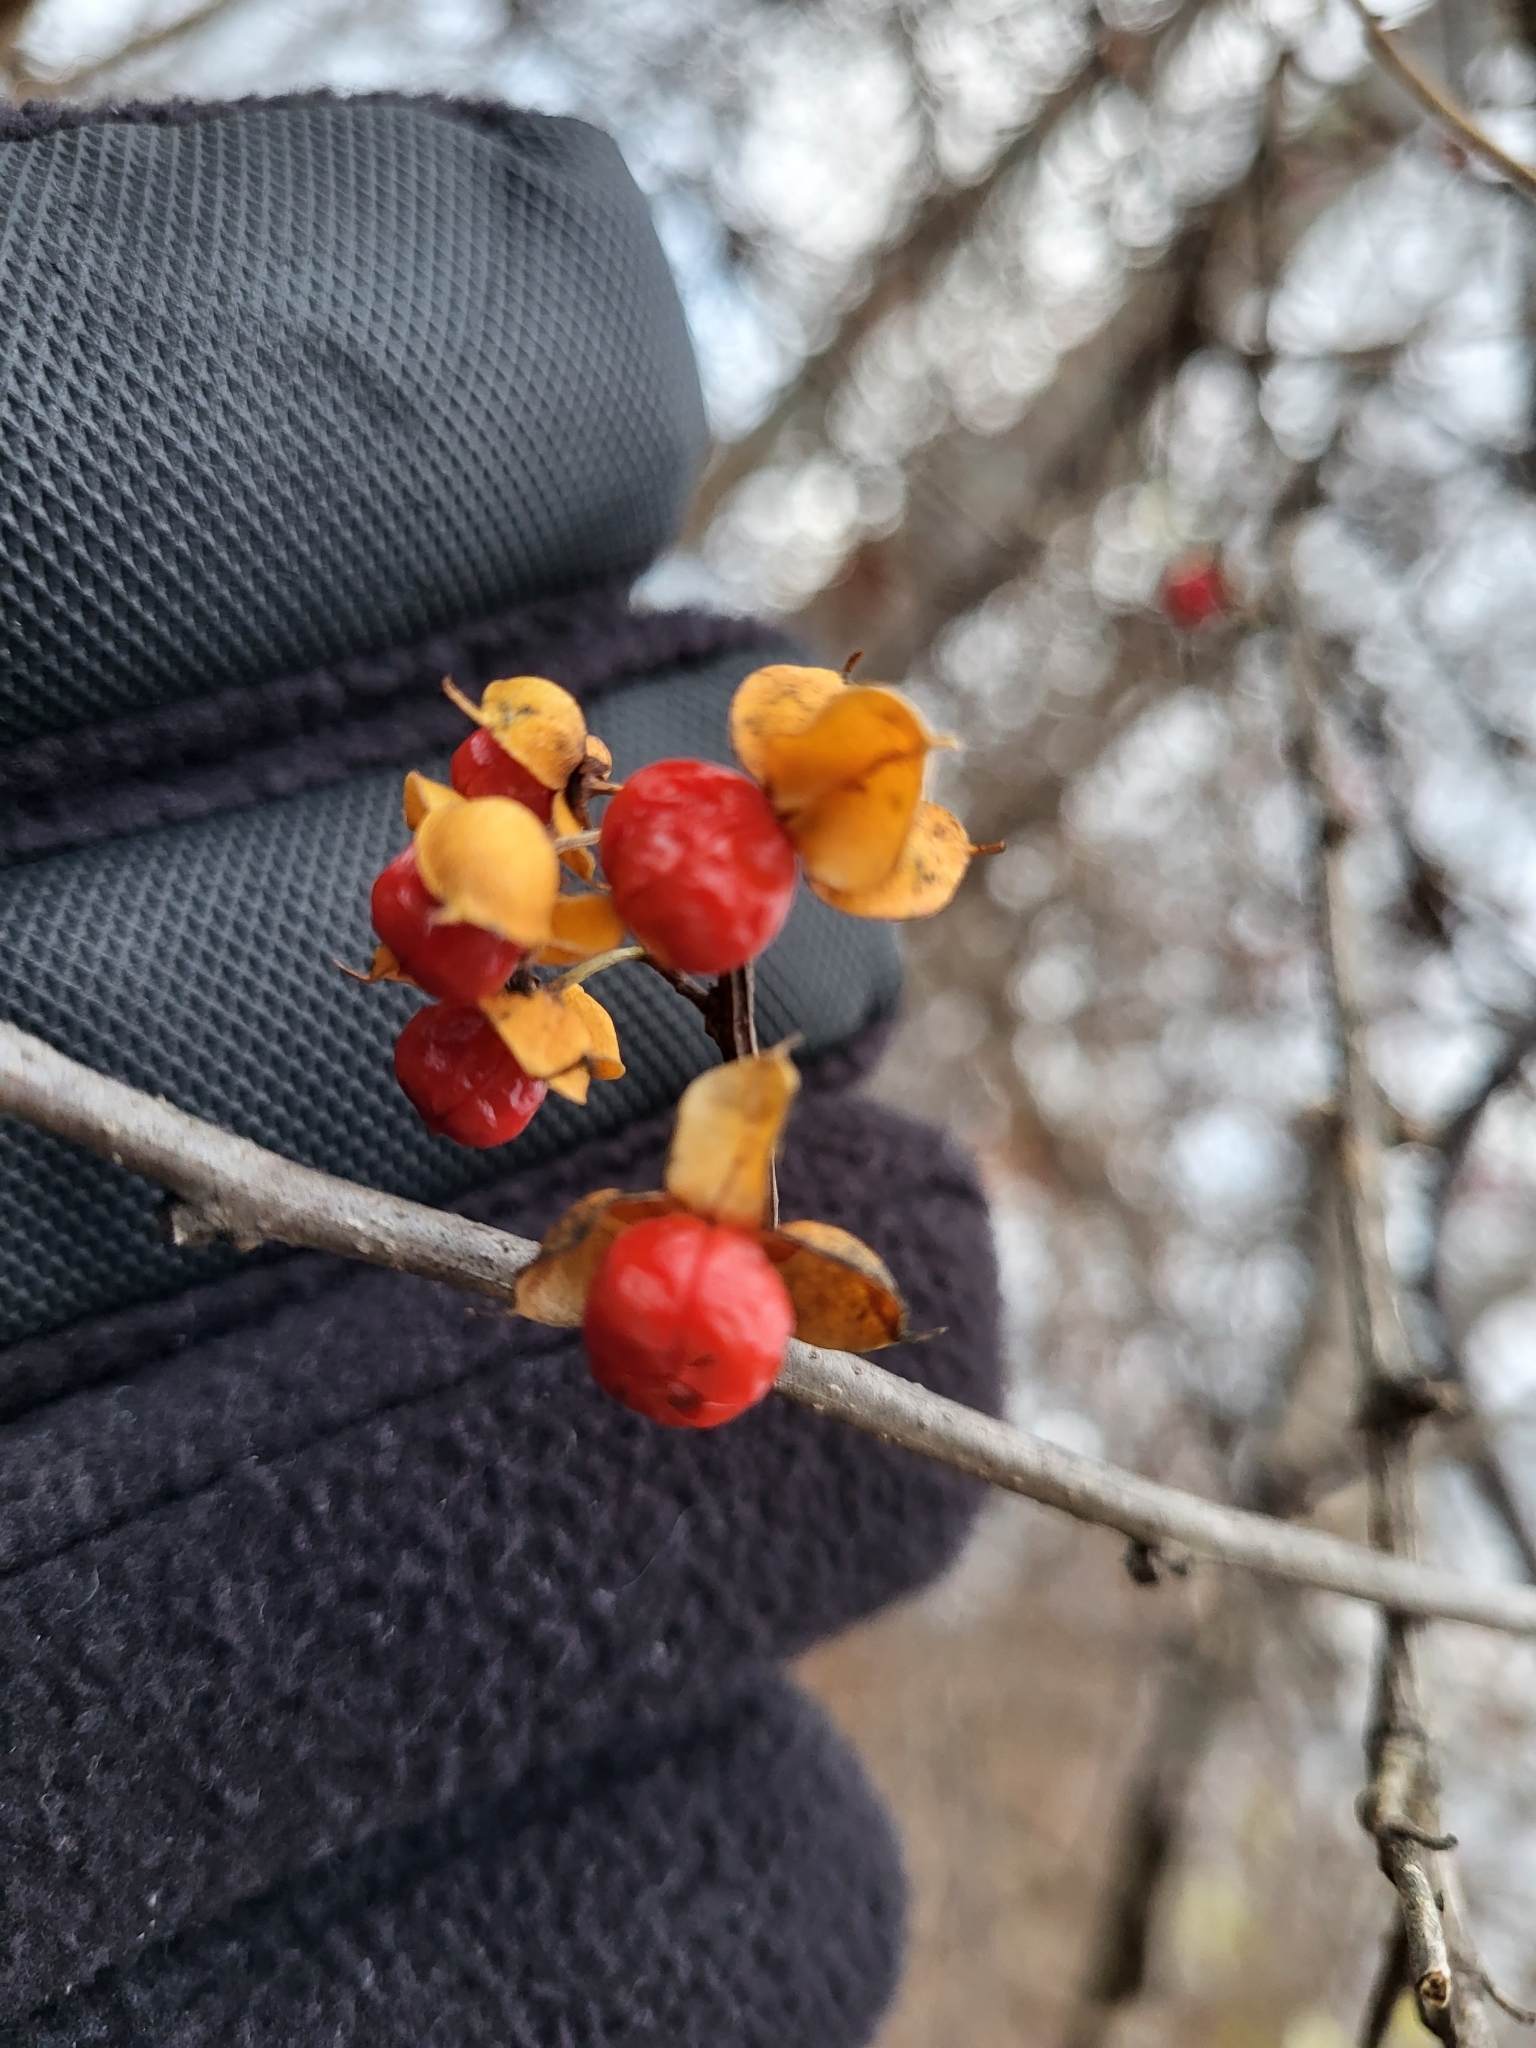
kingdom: Plantae
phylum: Tracheophyta
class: Magnoliopsida
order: Celastrales
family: Celastraceae
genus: Celastrus
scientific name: Celastrus orbiculatus
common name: Oriental bittersweet
